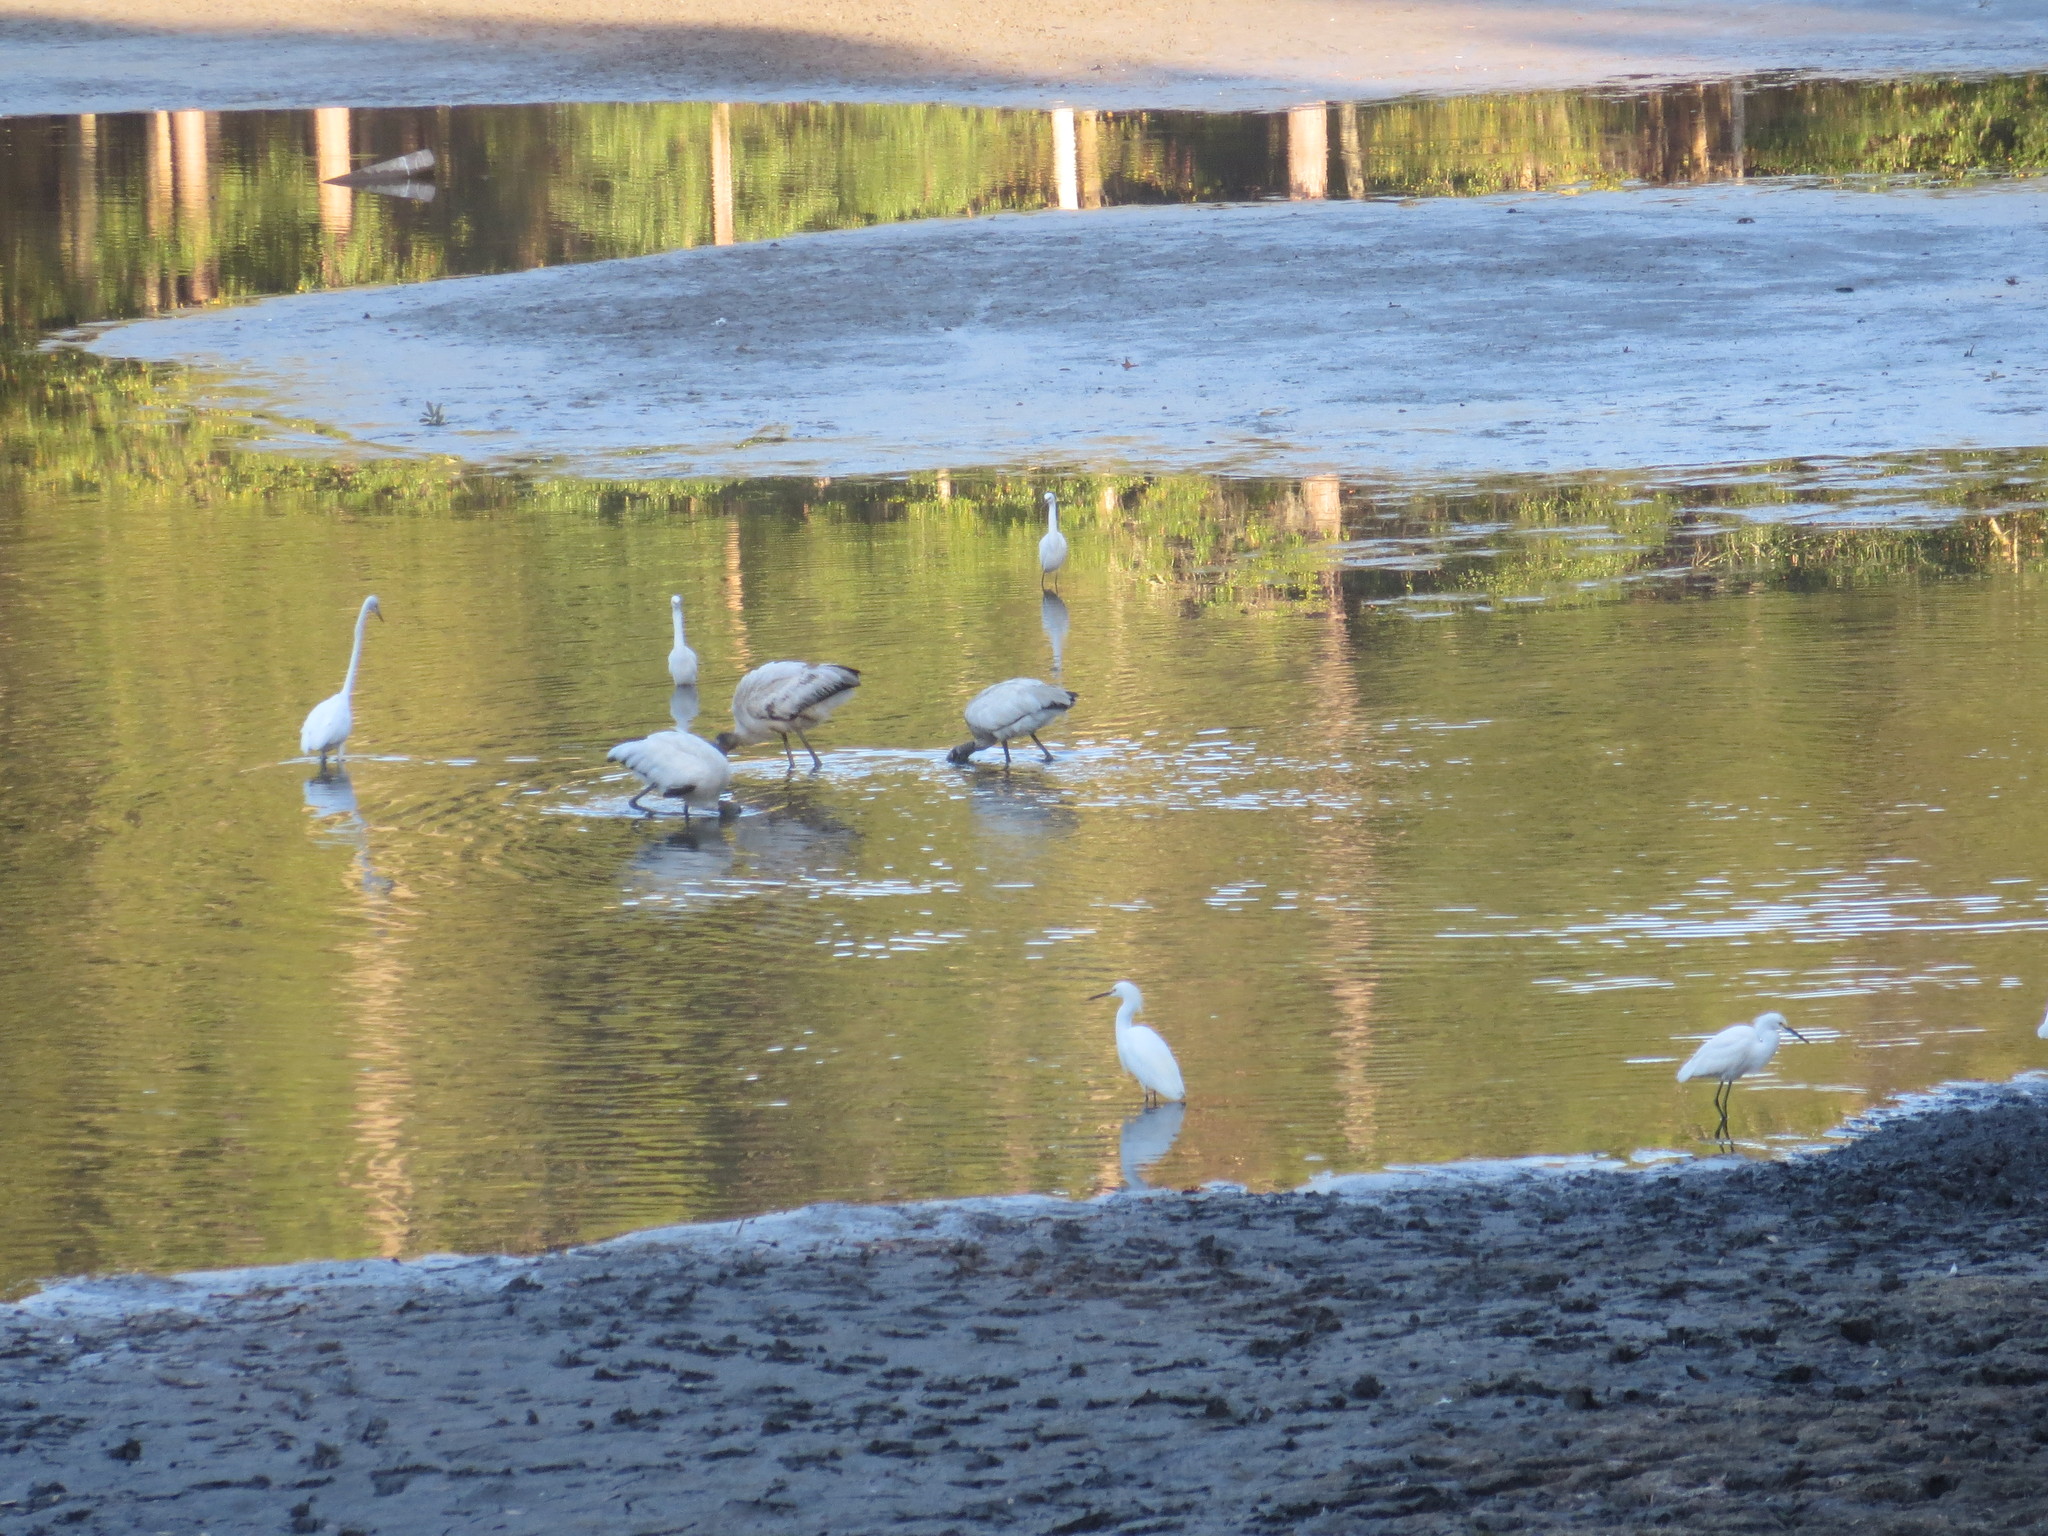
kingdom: Animalia
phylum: Chordata
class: Aves
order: Pelecaniformes
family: Ardeidae
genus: Egretta
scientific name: Egretta thula
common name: Snowy egret
